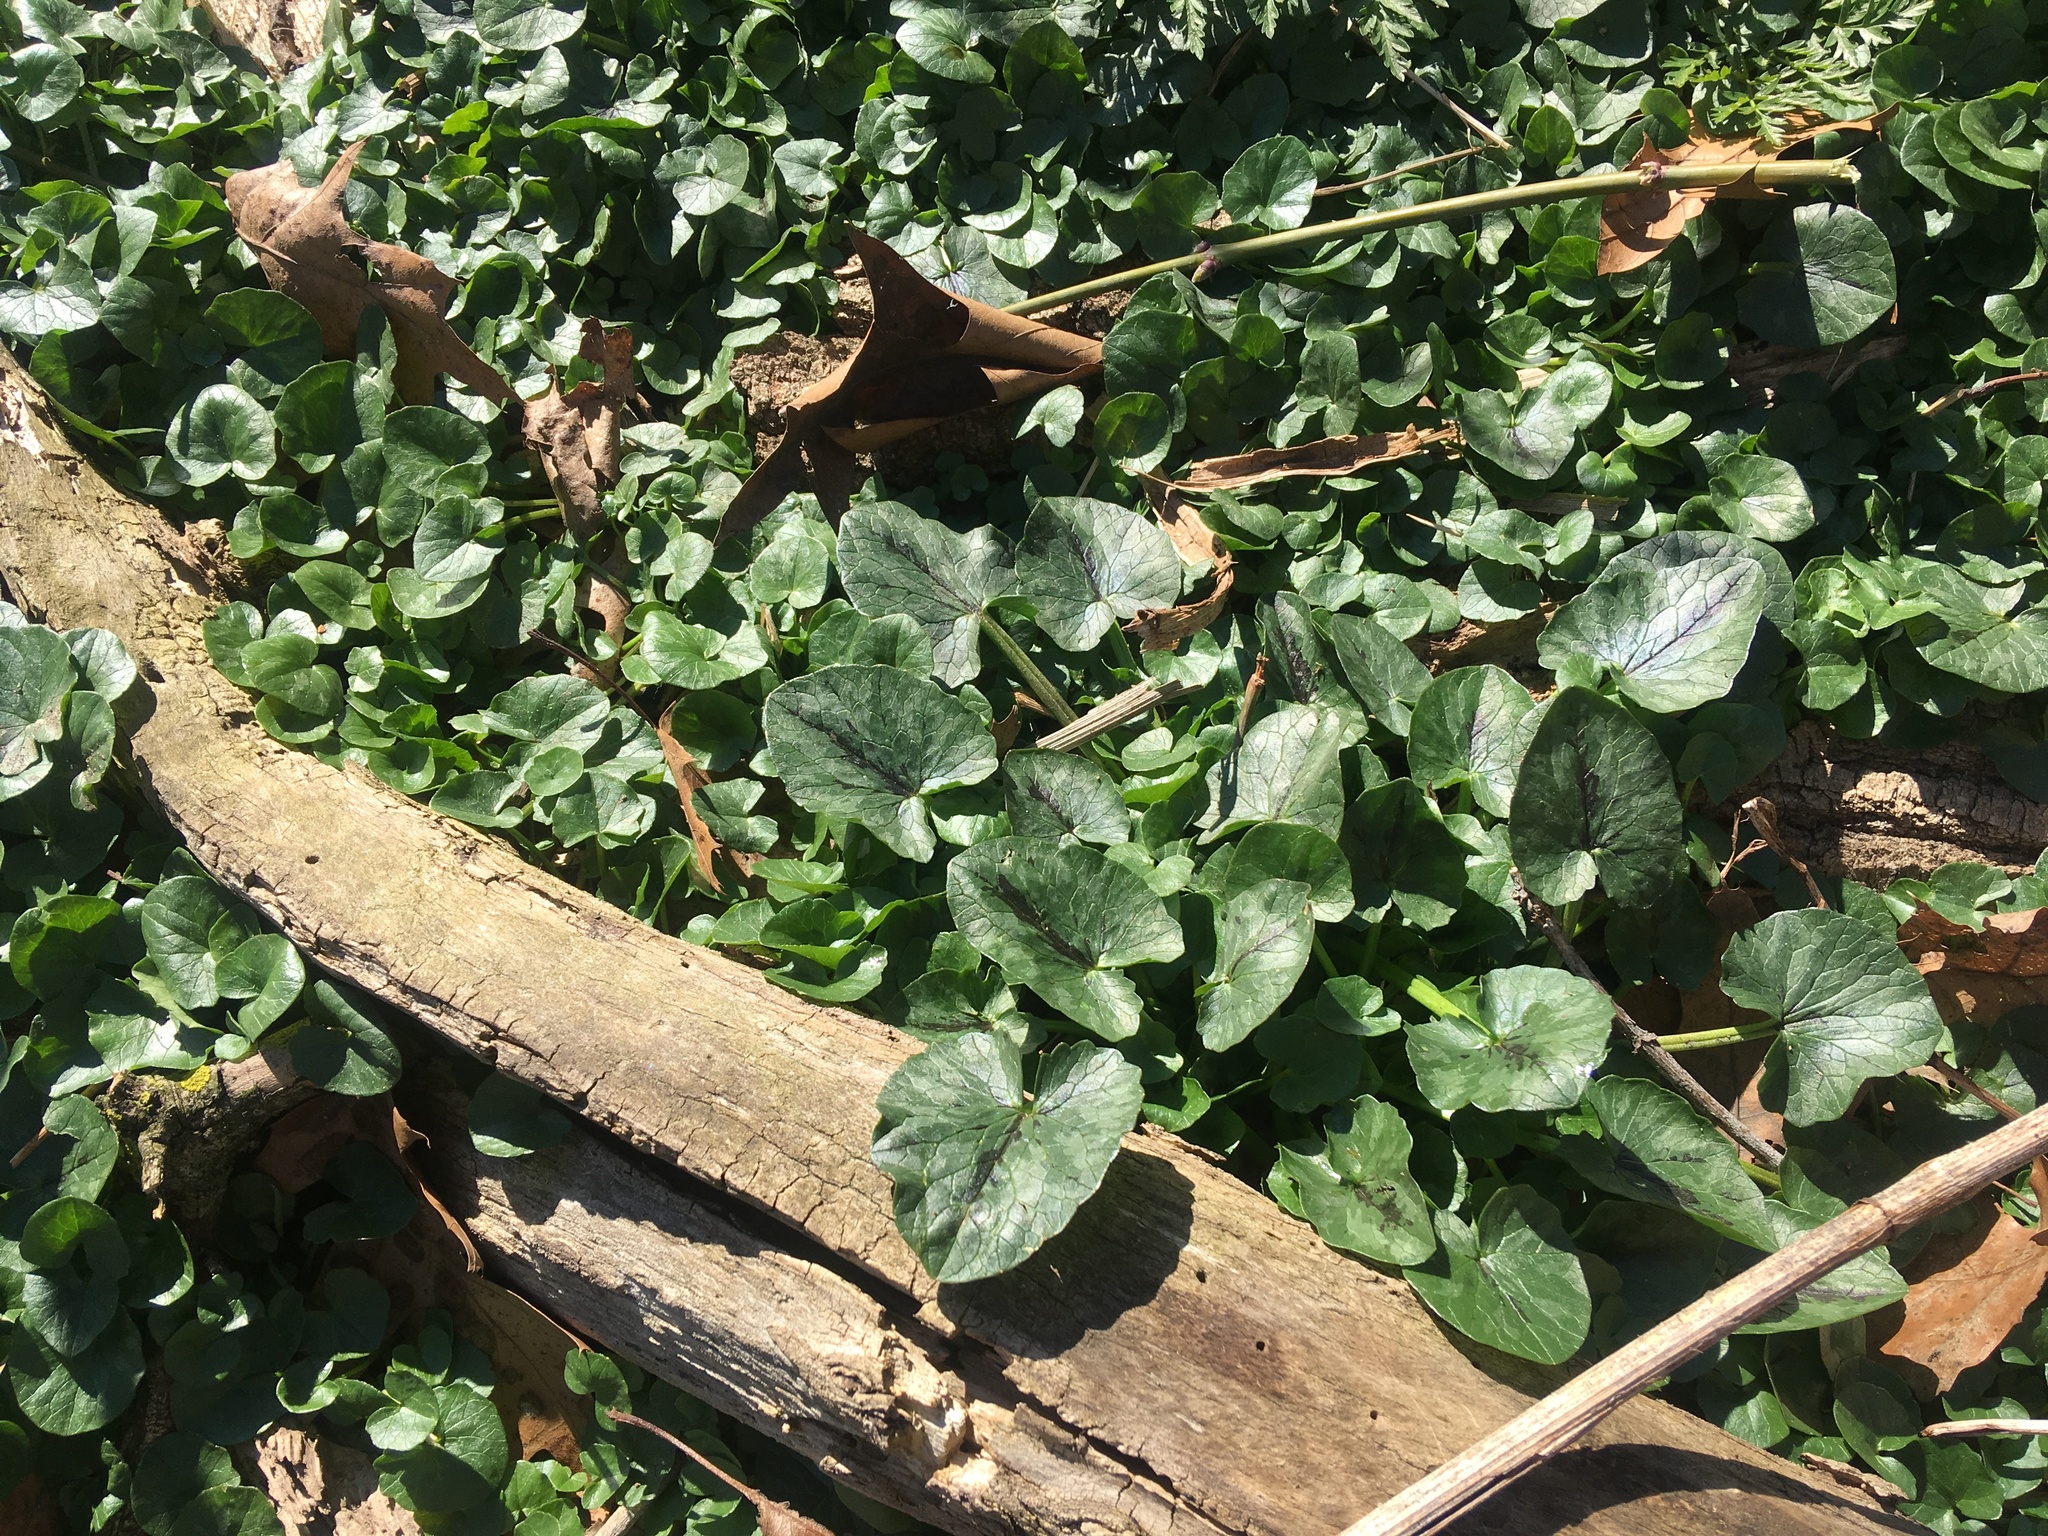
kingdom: Plantae
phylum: Tracheophyta
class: Magnoliopsida
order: Ranunculales
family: Ranunculaceae
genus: Ficaria
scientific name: Ficaria verna
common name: Lesser celandine
